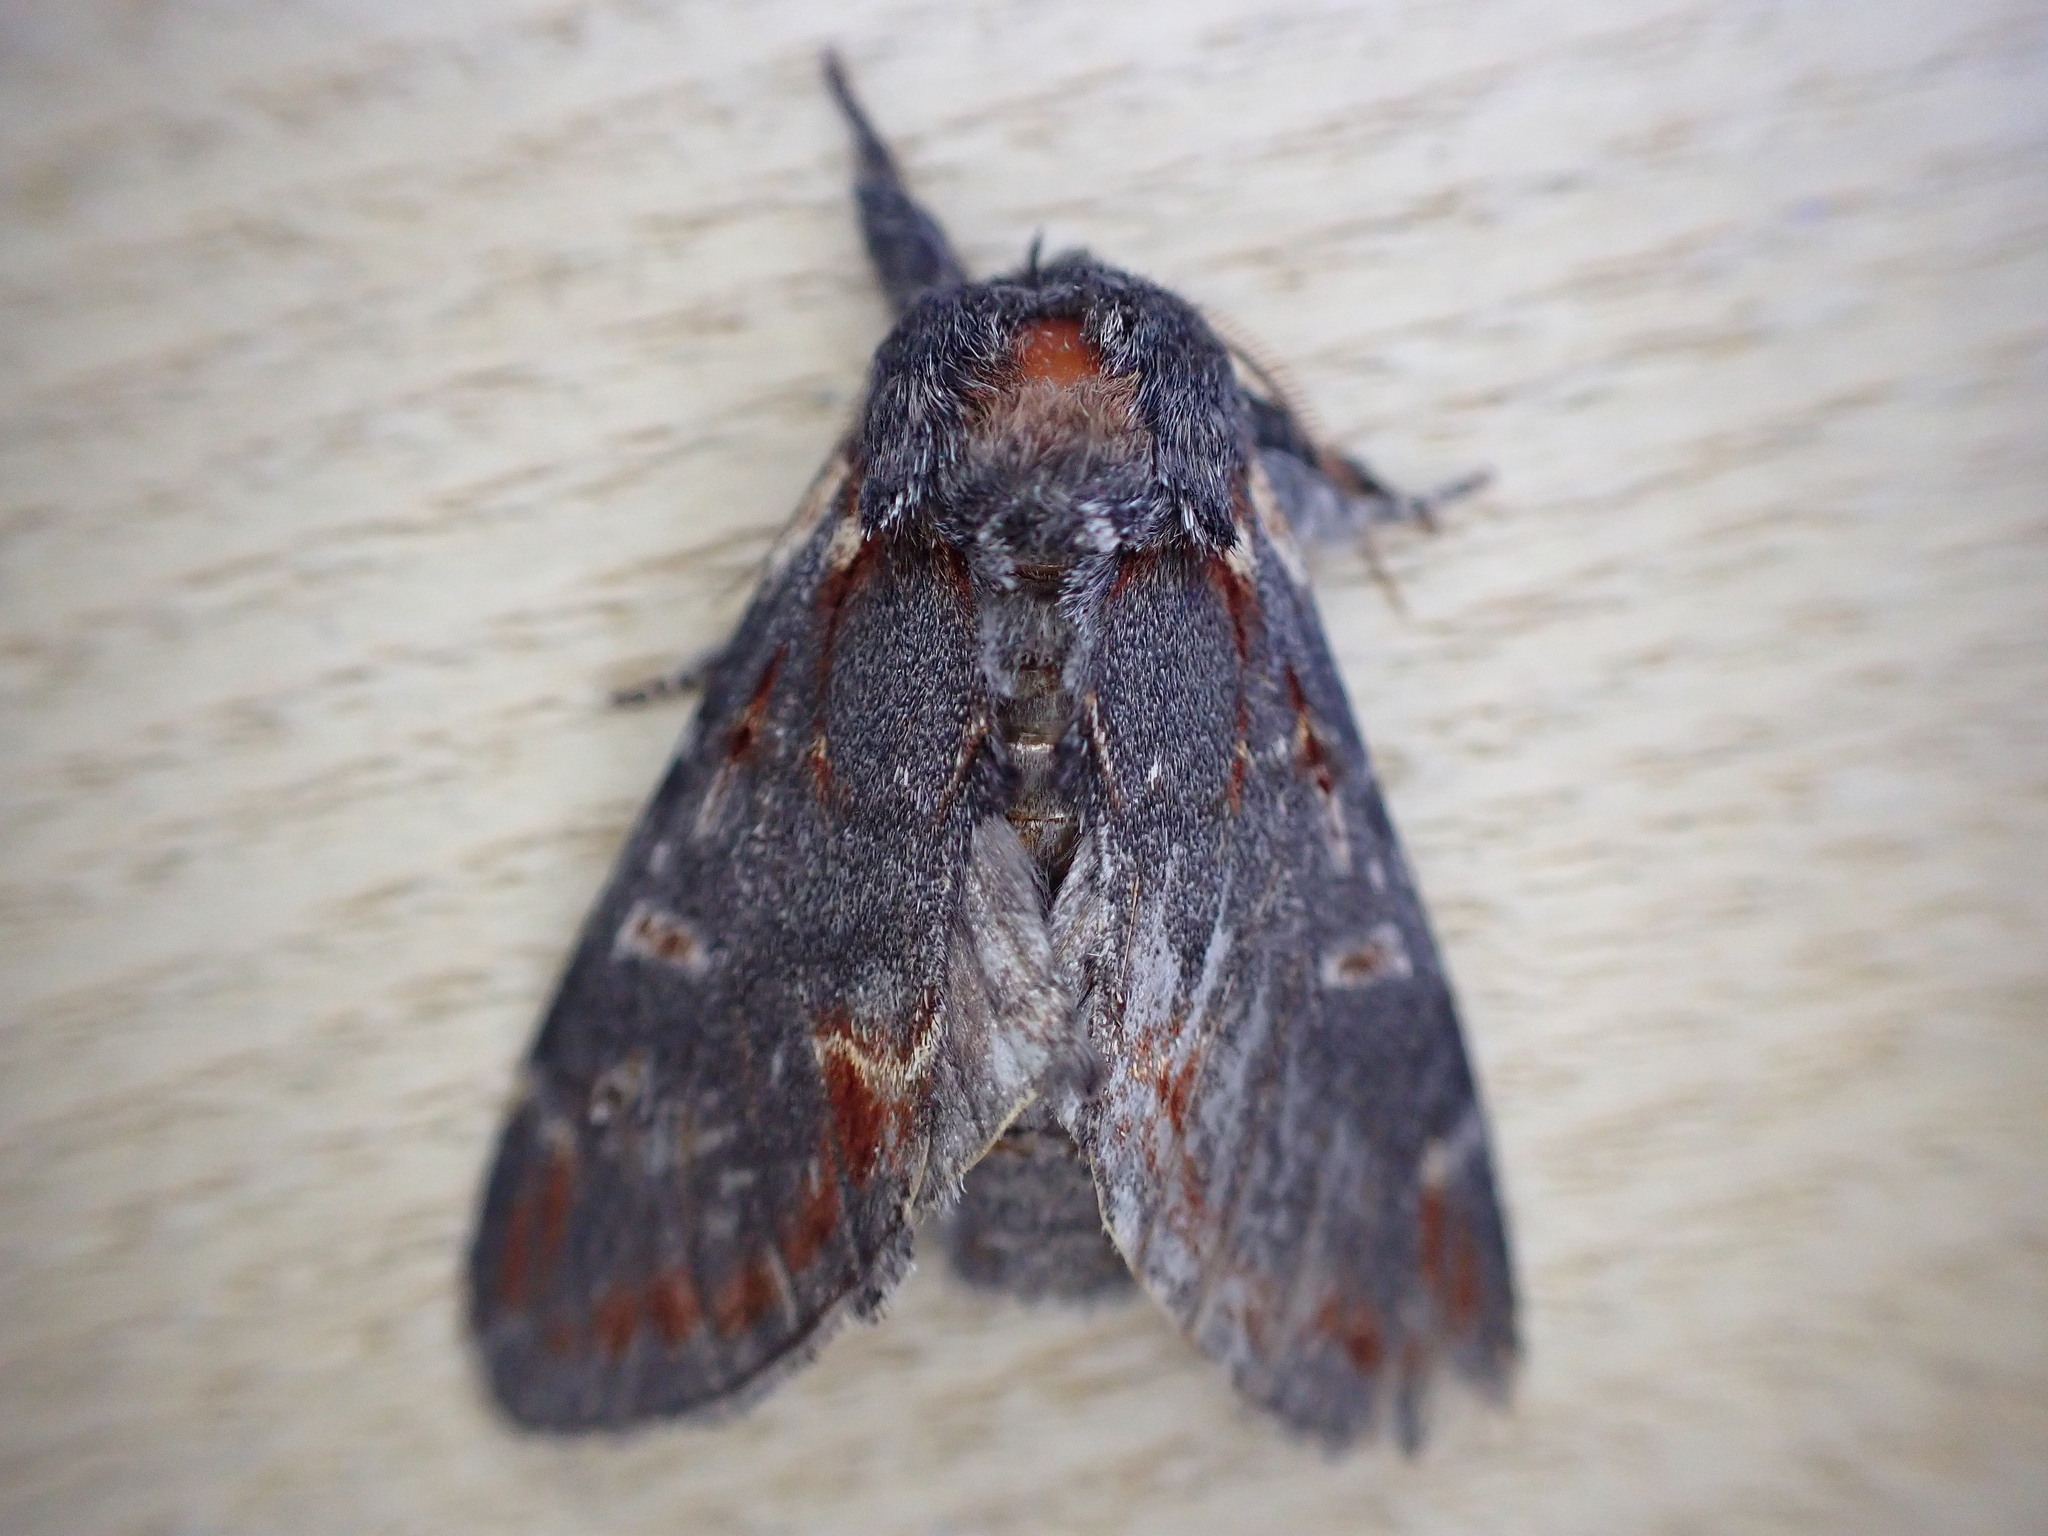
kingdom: Animalia
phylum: Arthropoda
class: Insecta
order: Lepidoptera
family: Notodontidae
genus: Notodonta
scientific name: Notodonta dromedarius
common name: Iron prominent
